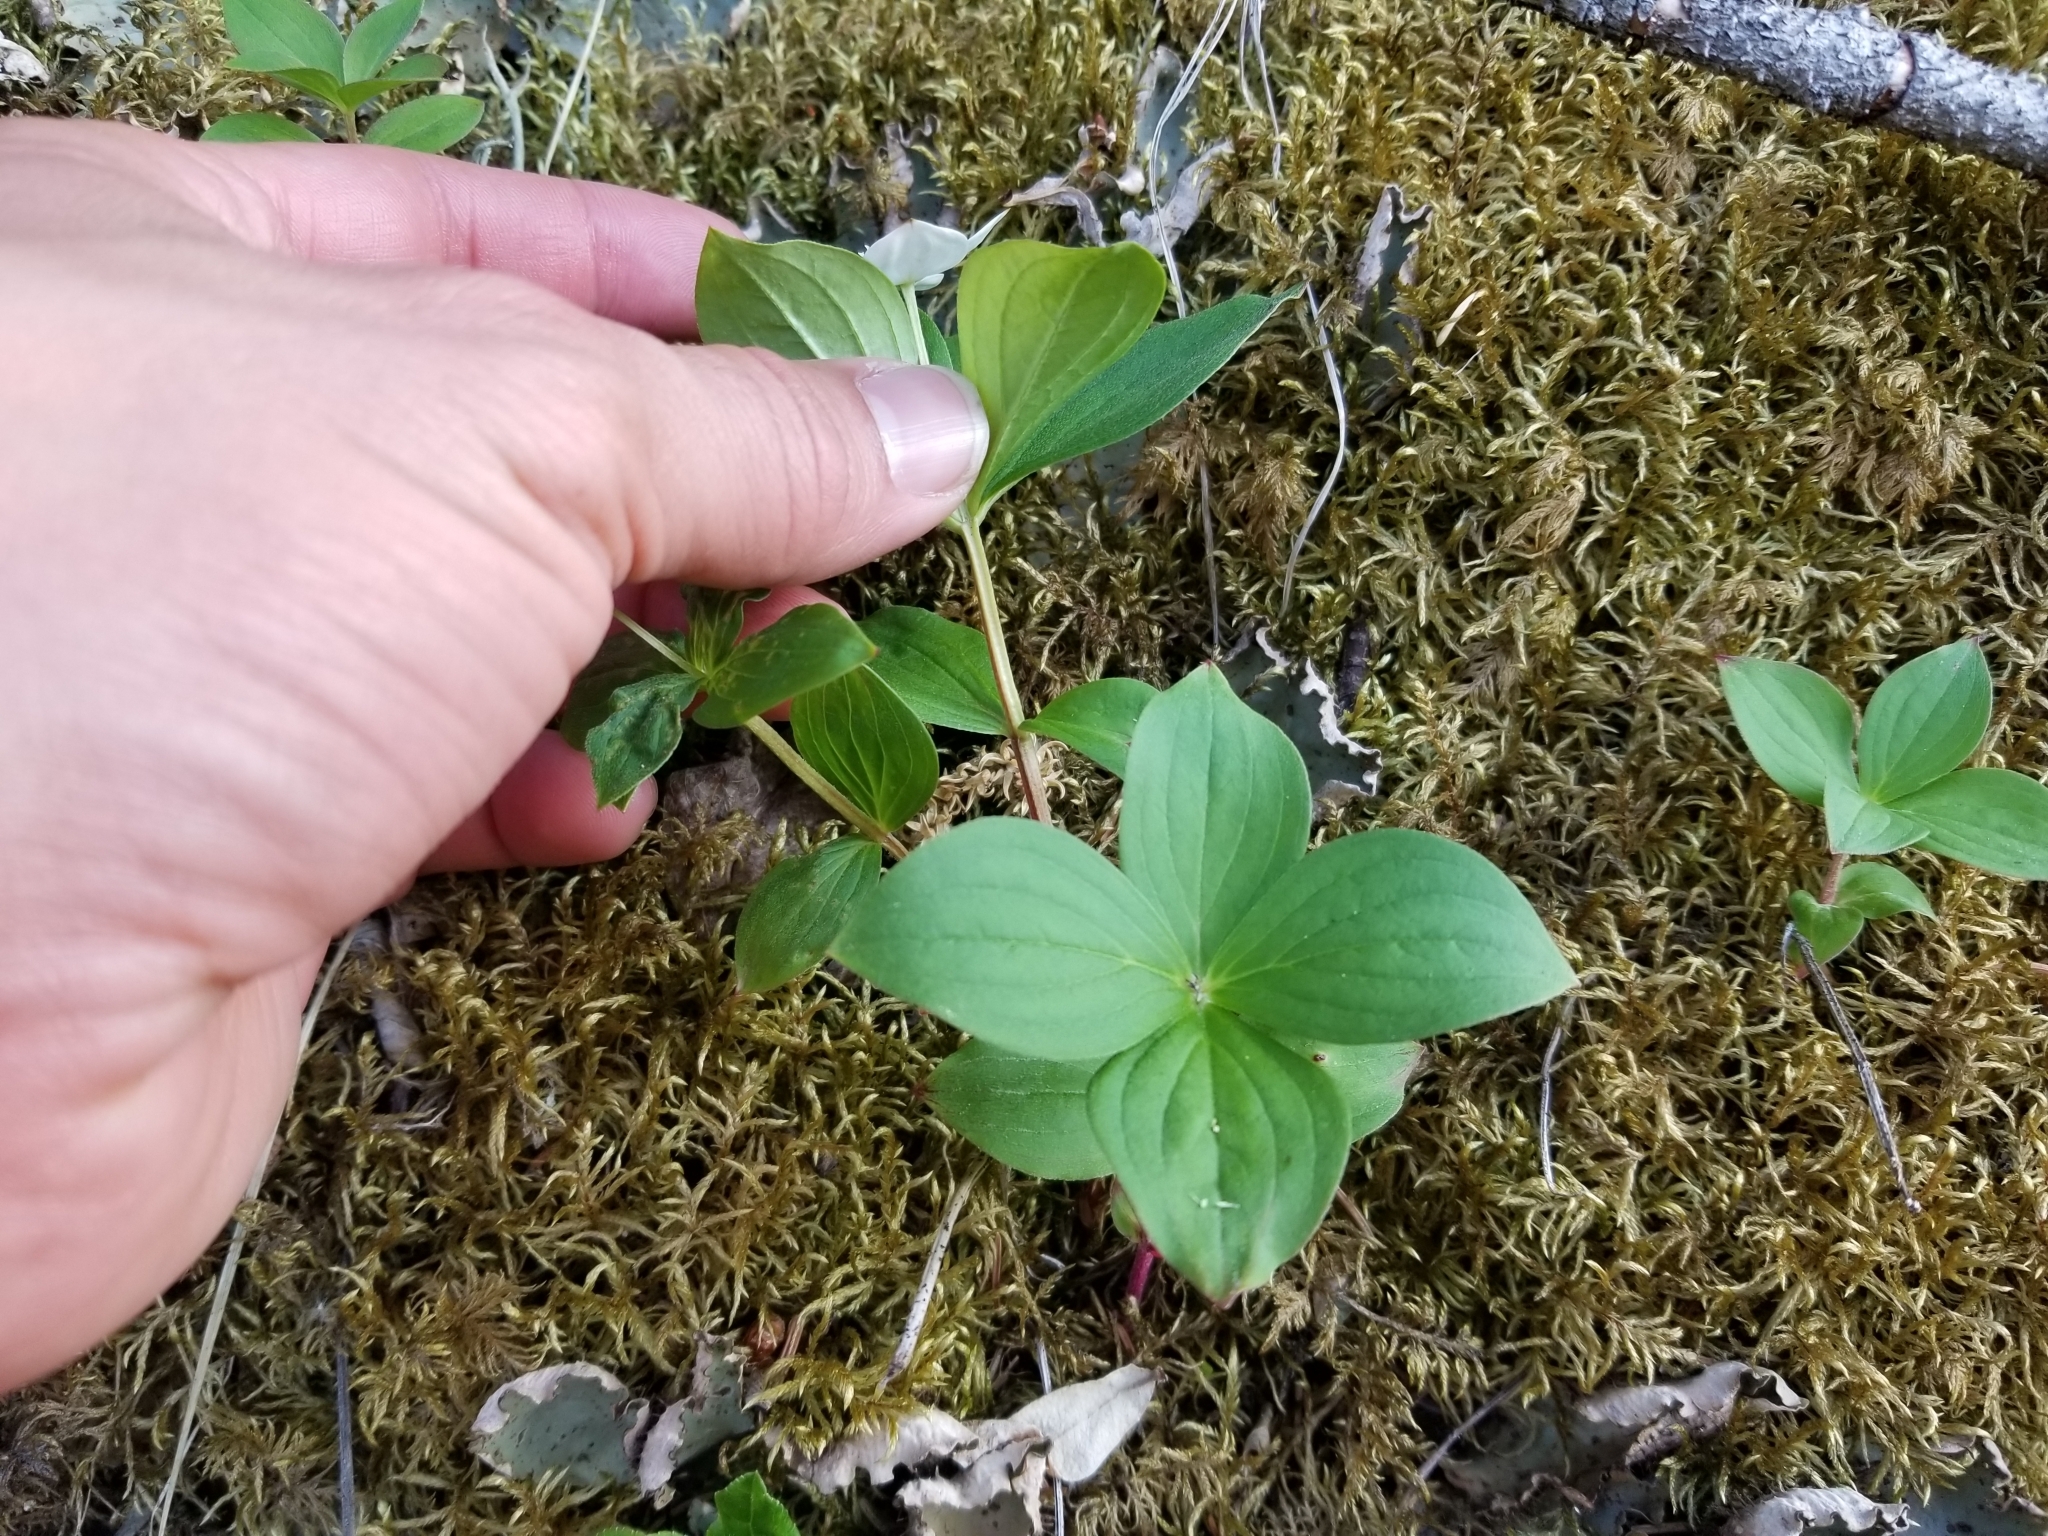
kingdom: Plantae
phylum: Tracheophyta
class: Magnoliopsida
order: Cornales
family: Cornaceae
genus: Cornus
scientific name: Cornus unalaschkensis
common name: Alaska bunchberry
